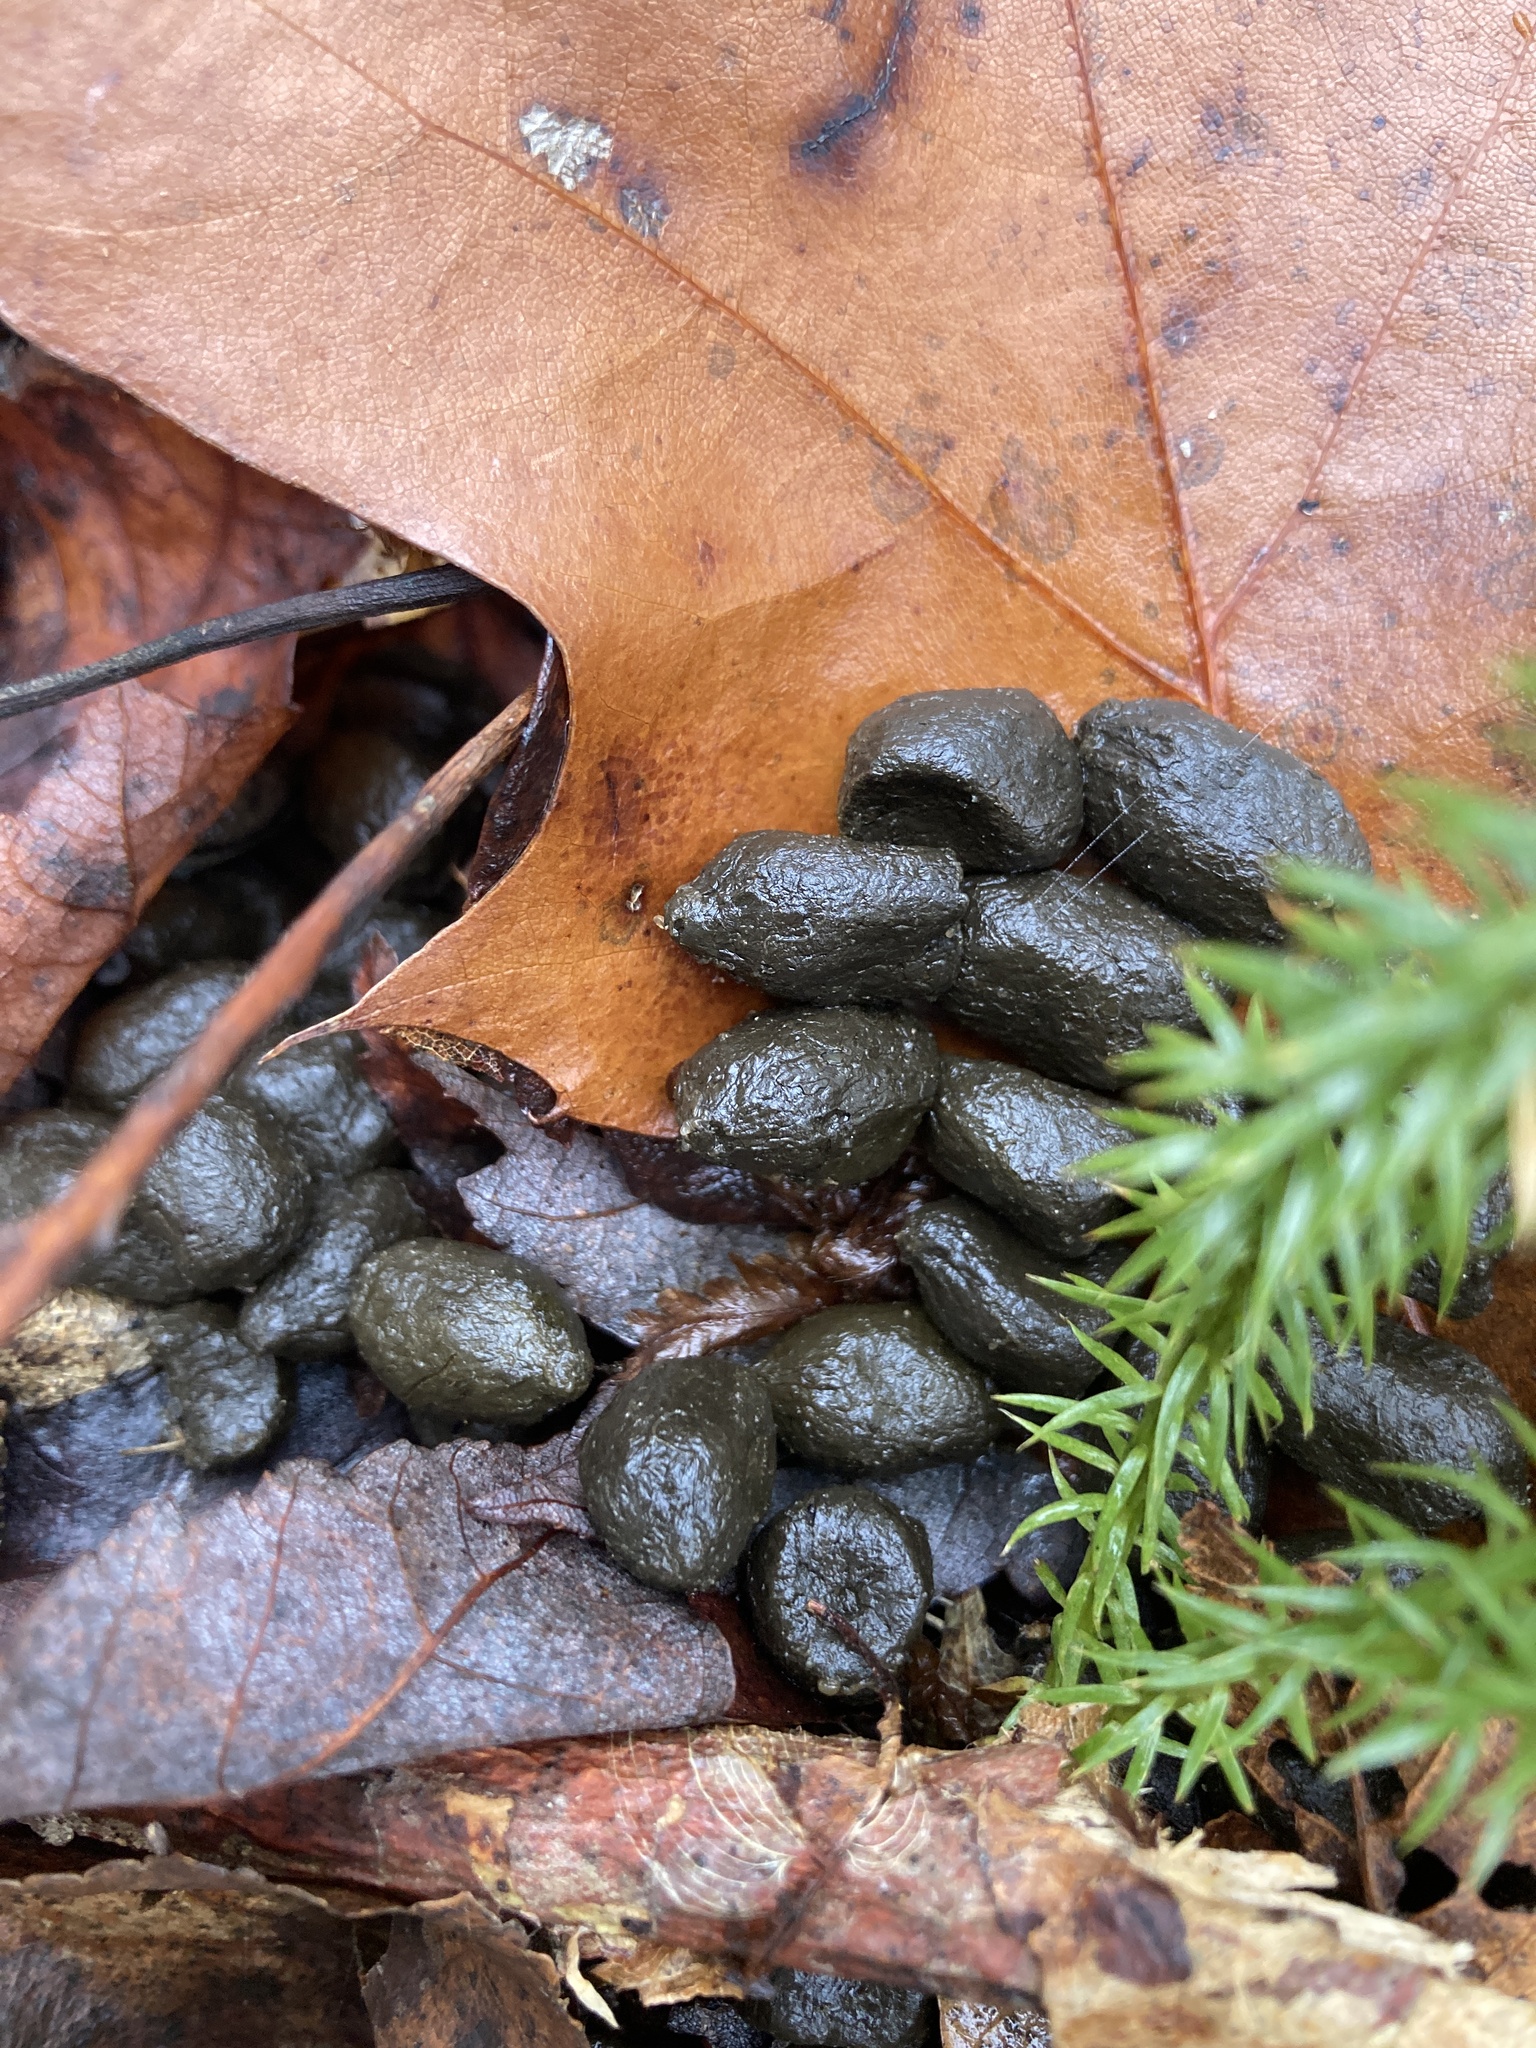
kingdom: Animalia
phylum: Chordata
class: Mammalia
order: Artiodactyla
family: Cervidae
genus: Odocoileus
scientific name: Odocoileus virginianus
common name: White-tailed deer
